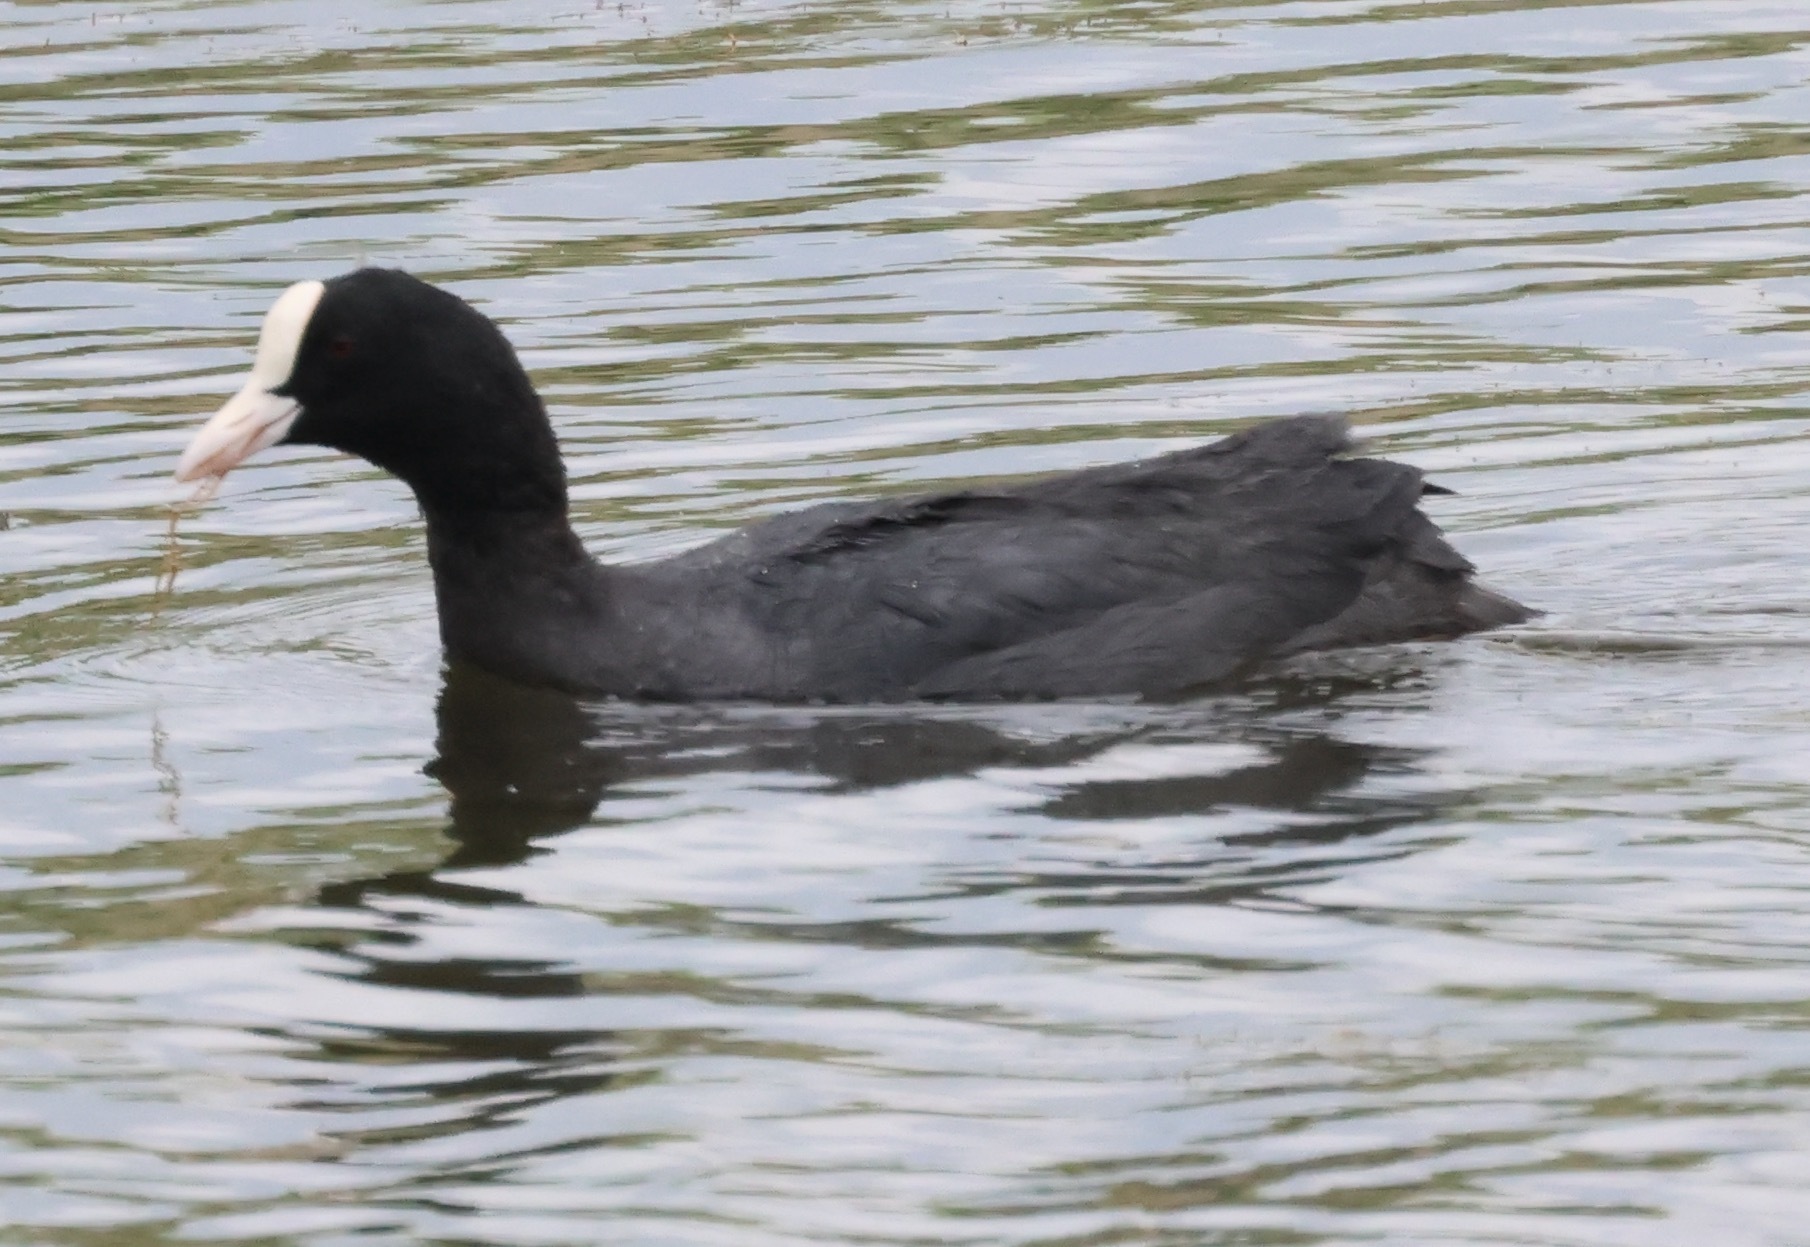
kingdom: Animalia
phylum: Chordata
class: Aves
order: Gruiformes
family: Rallidae
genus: Fulica
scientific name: Fulica atra
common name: Eurasian coot
